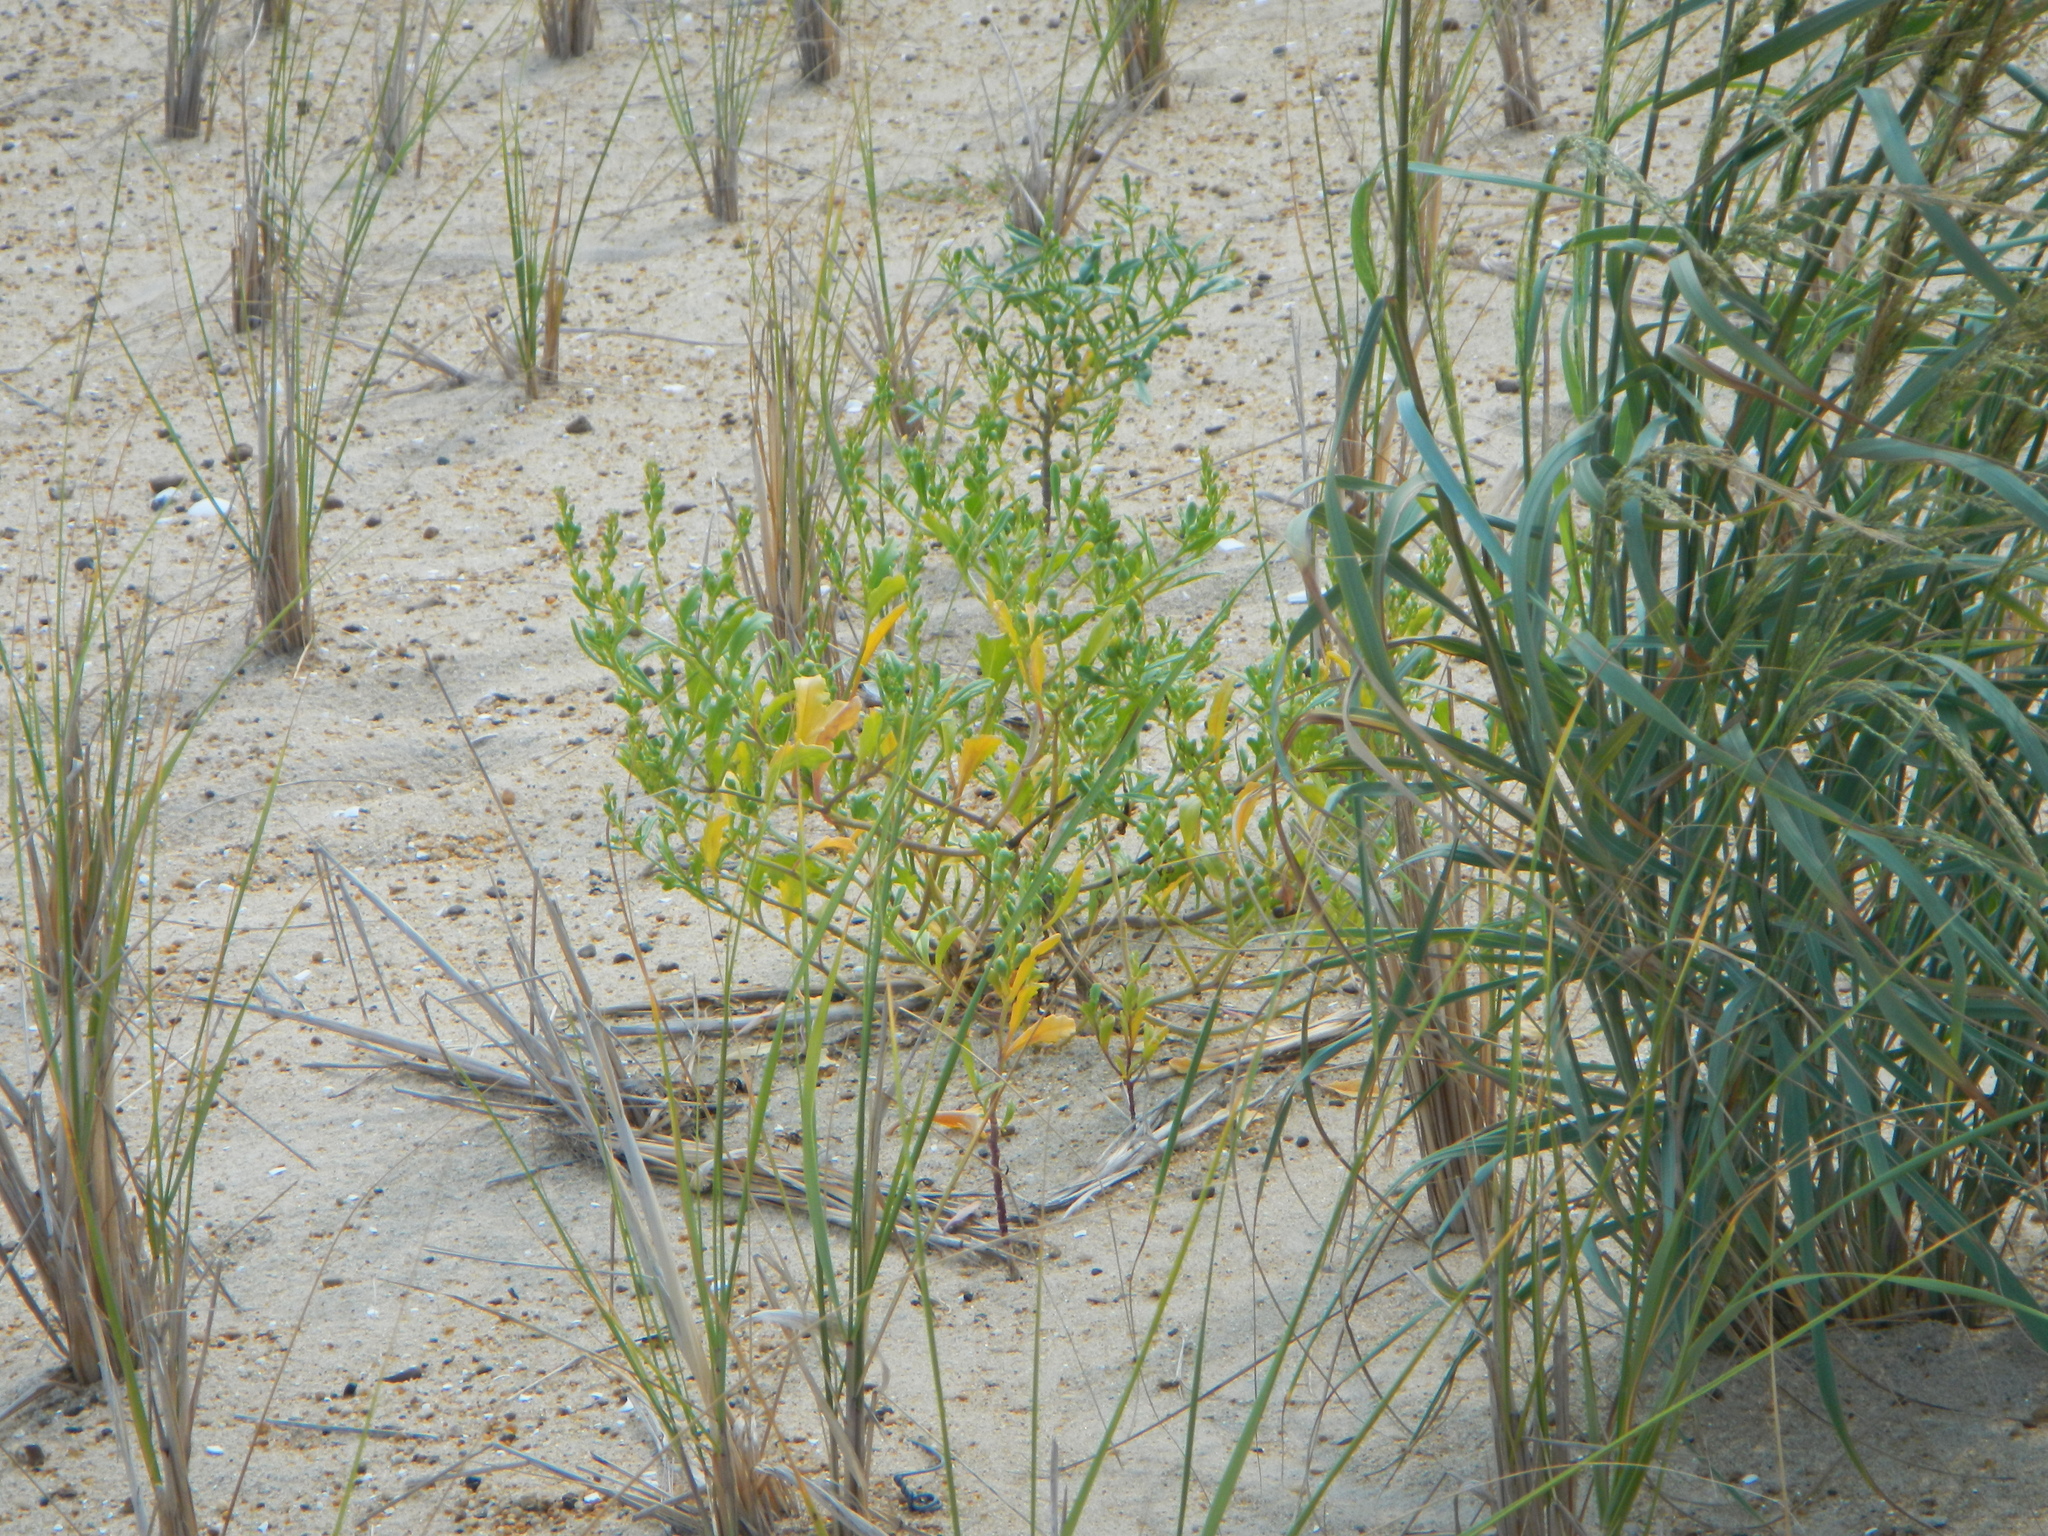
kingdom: Plantae
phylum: Tracheophyta
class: Magnoliopsida
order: Brassicales
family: Brassicaceae
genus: Cakile
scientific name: Cakile edentula
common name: American sea rocket
